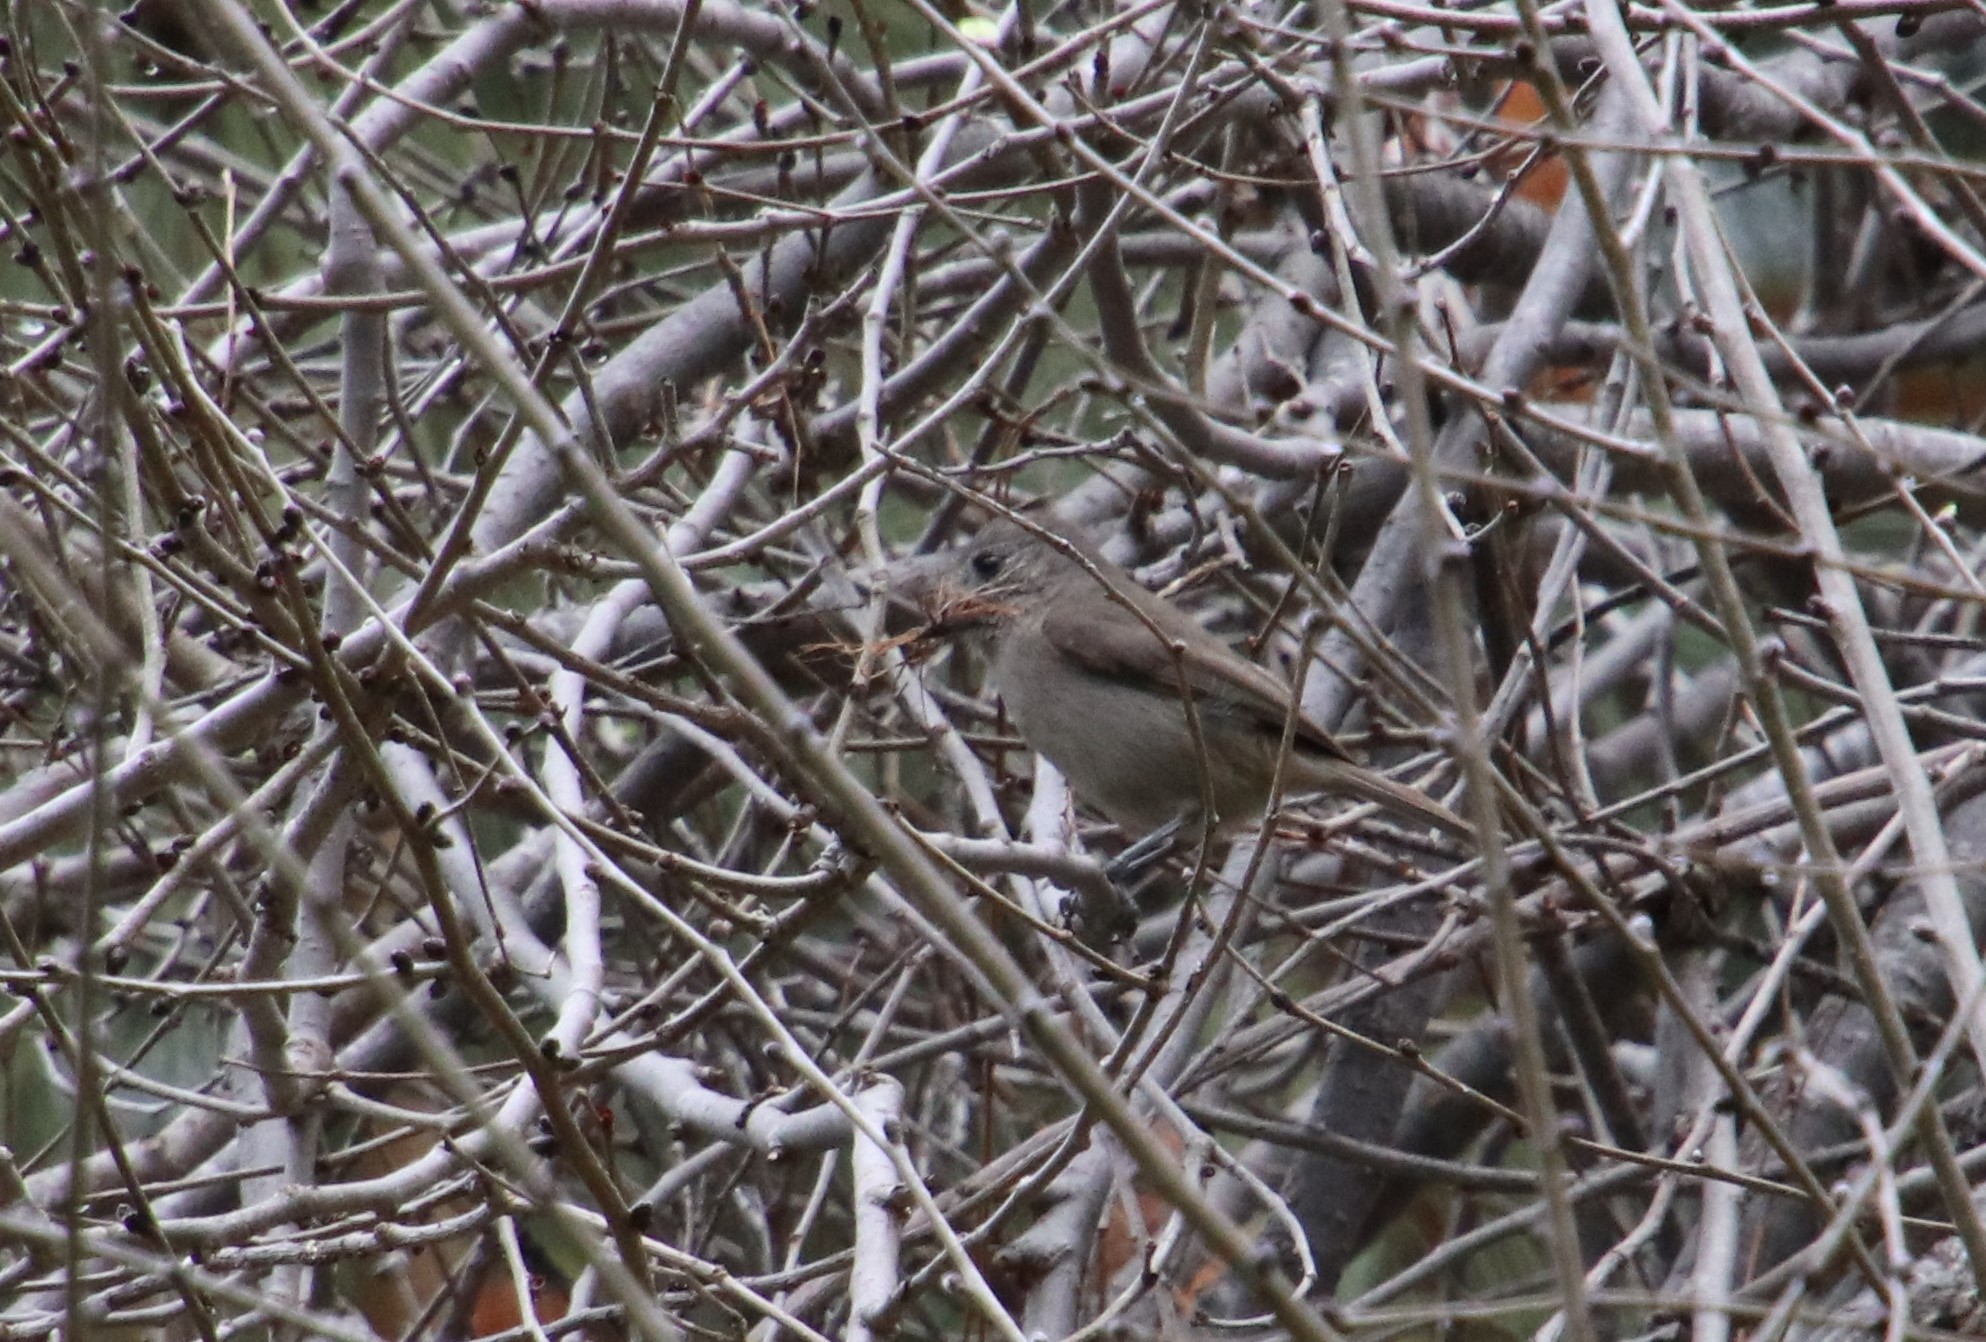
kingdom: Animalia
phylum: Chordata
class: Aves
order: Passeriformes
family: Paridae
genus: Baeolophus
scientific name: Baeolophus inornatus
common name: Oak titmouse
